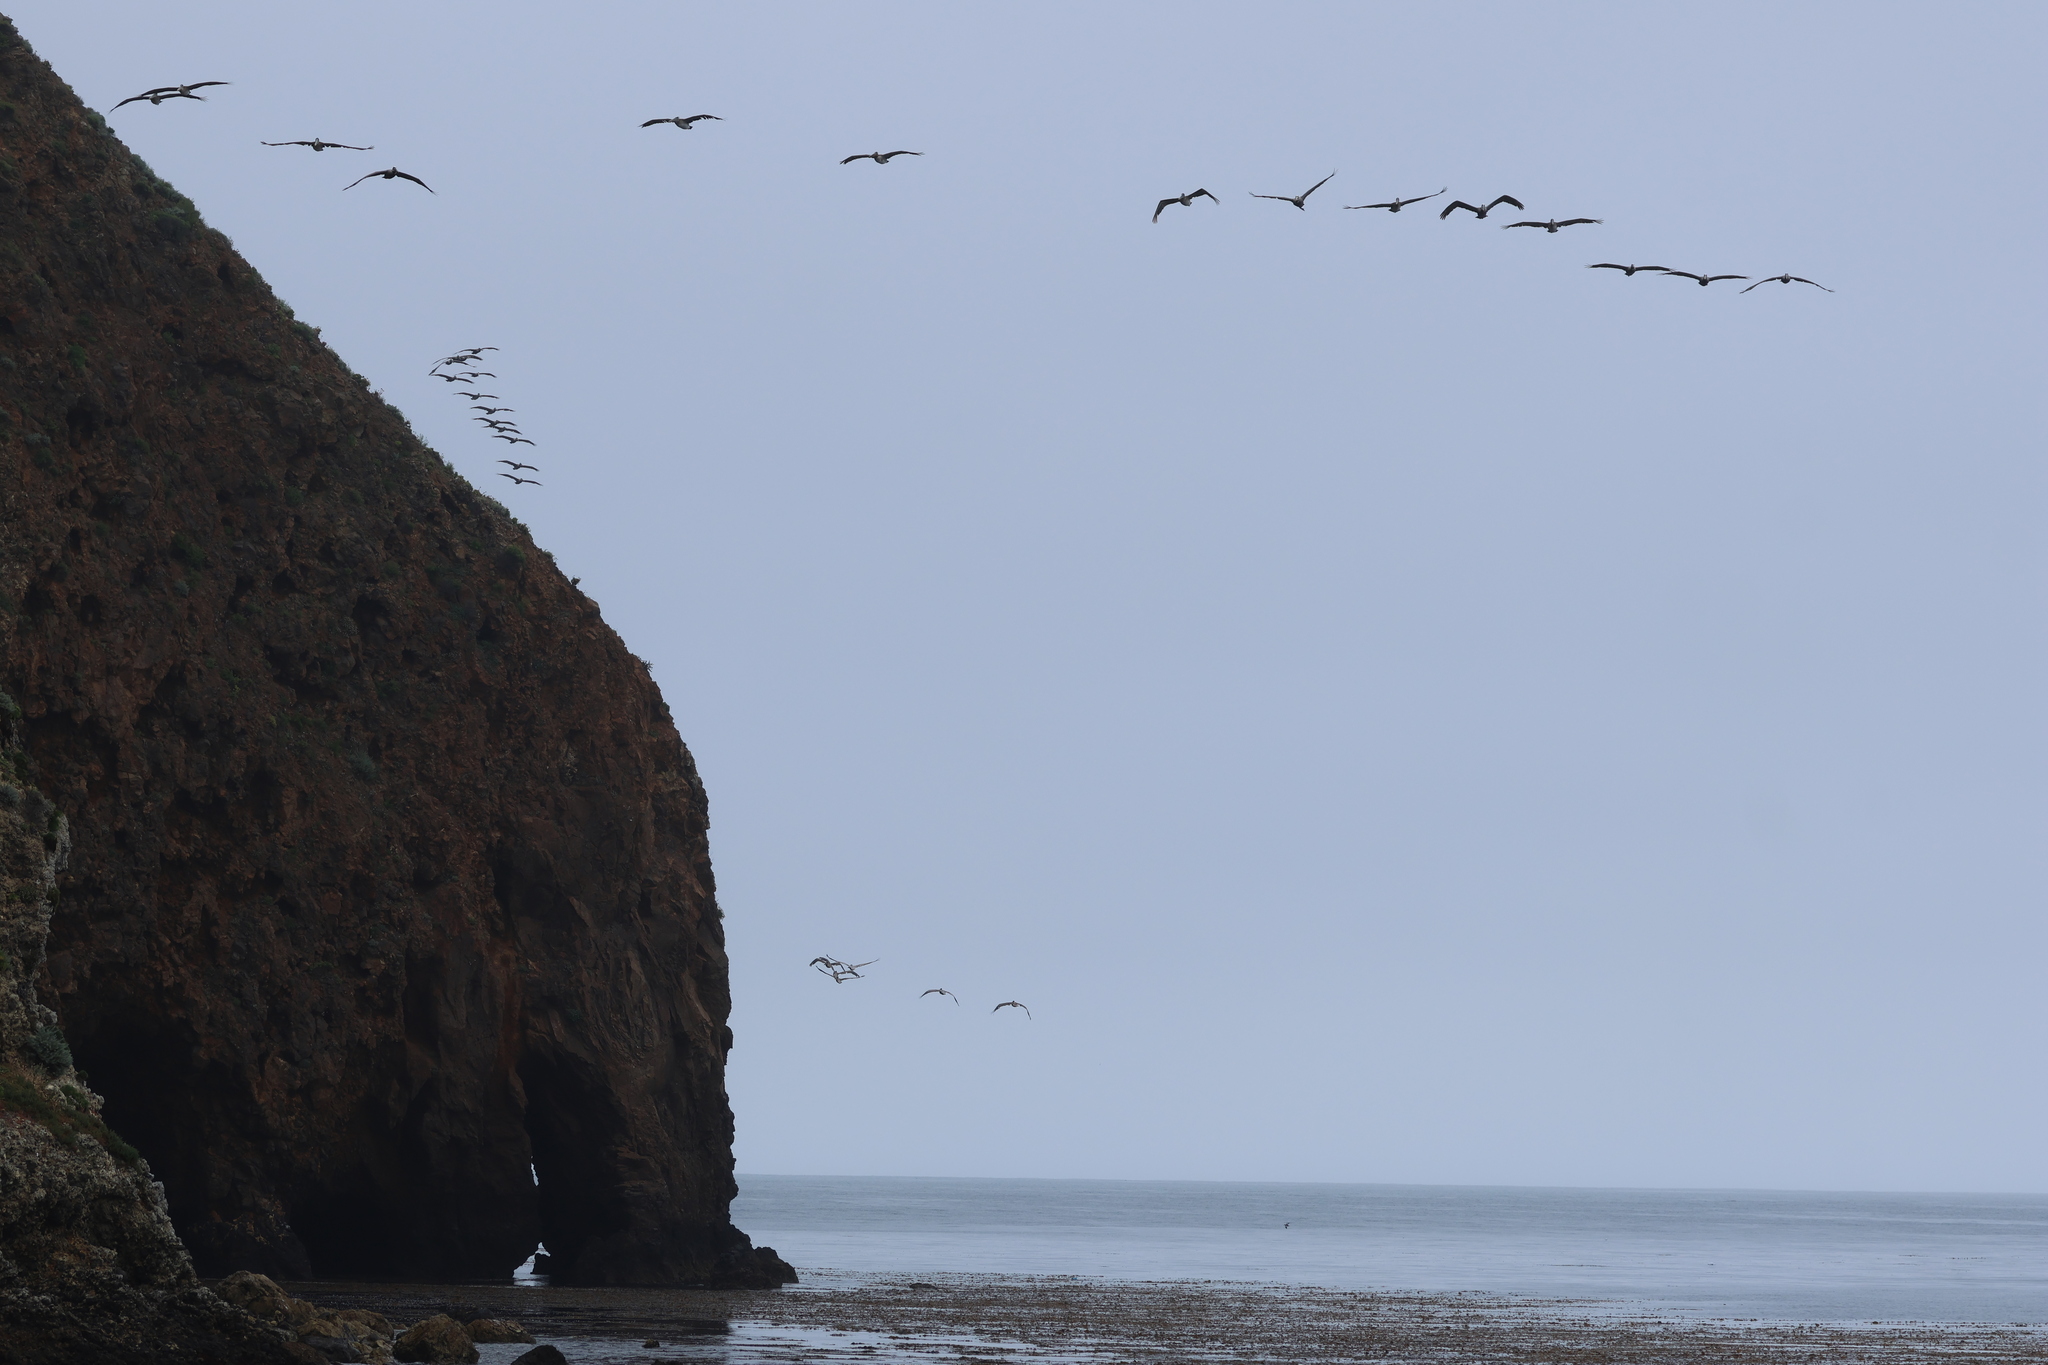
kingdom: Animalia
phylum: Chordata
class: Aves
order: Pelecaniformes
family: Pelecanidae
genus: Pelecanus
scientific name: Pelecanus occidentalis
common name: Brown pelican
